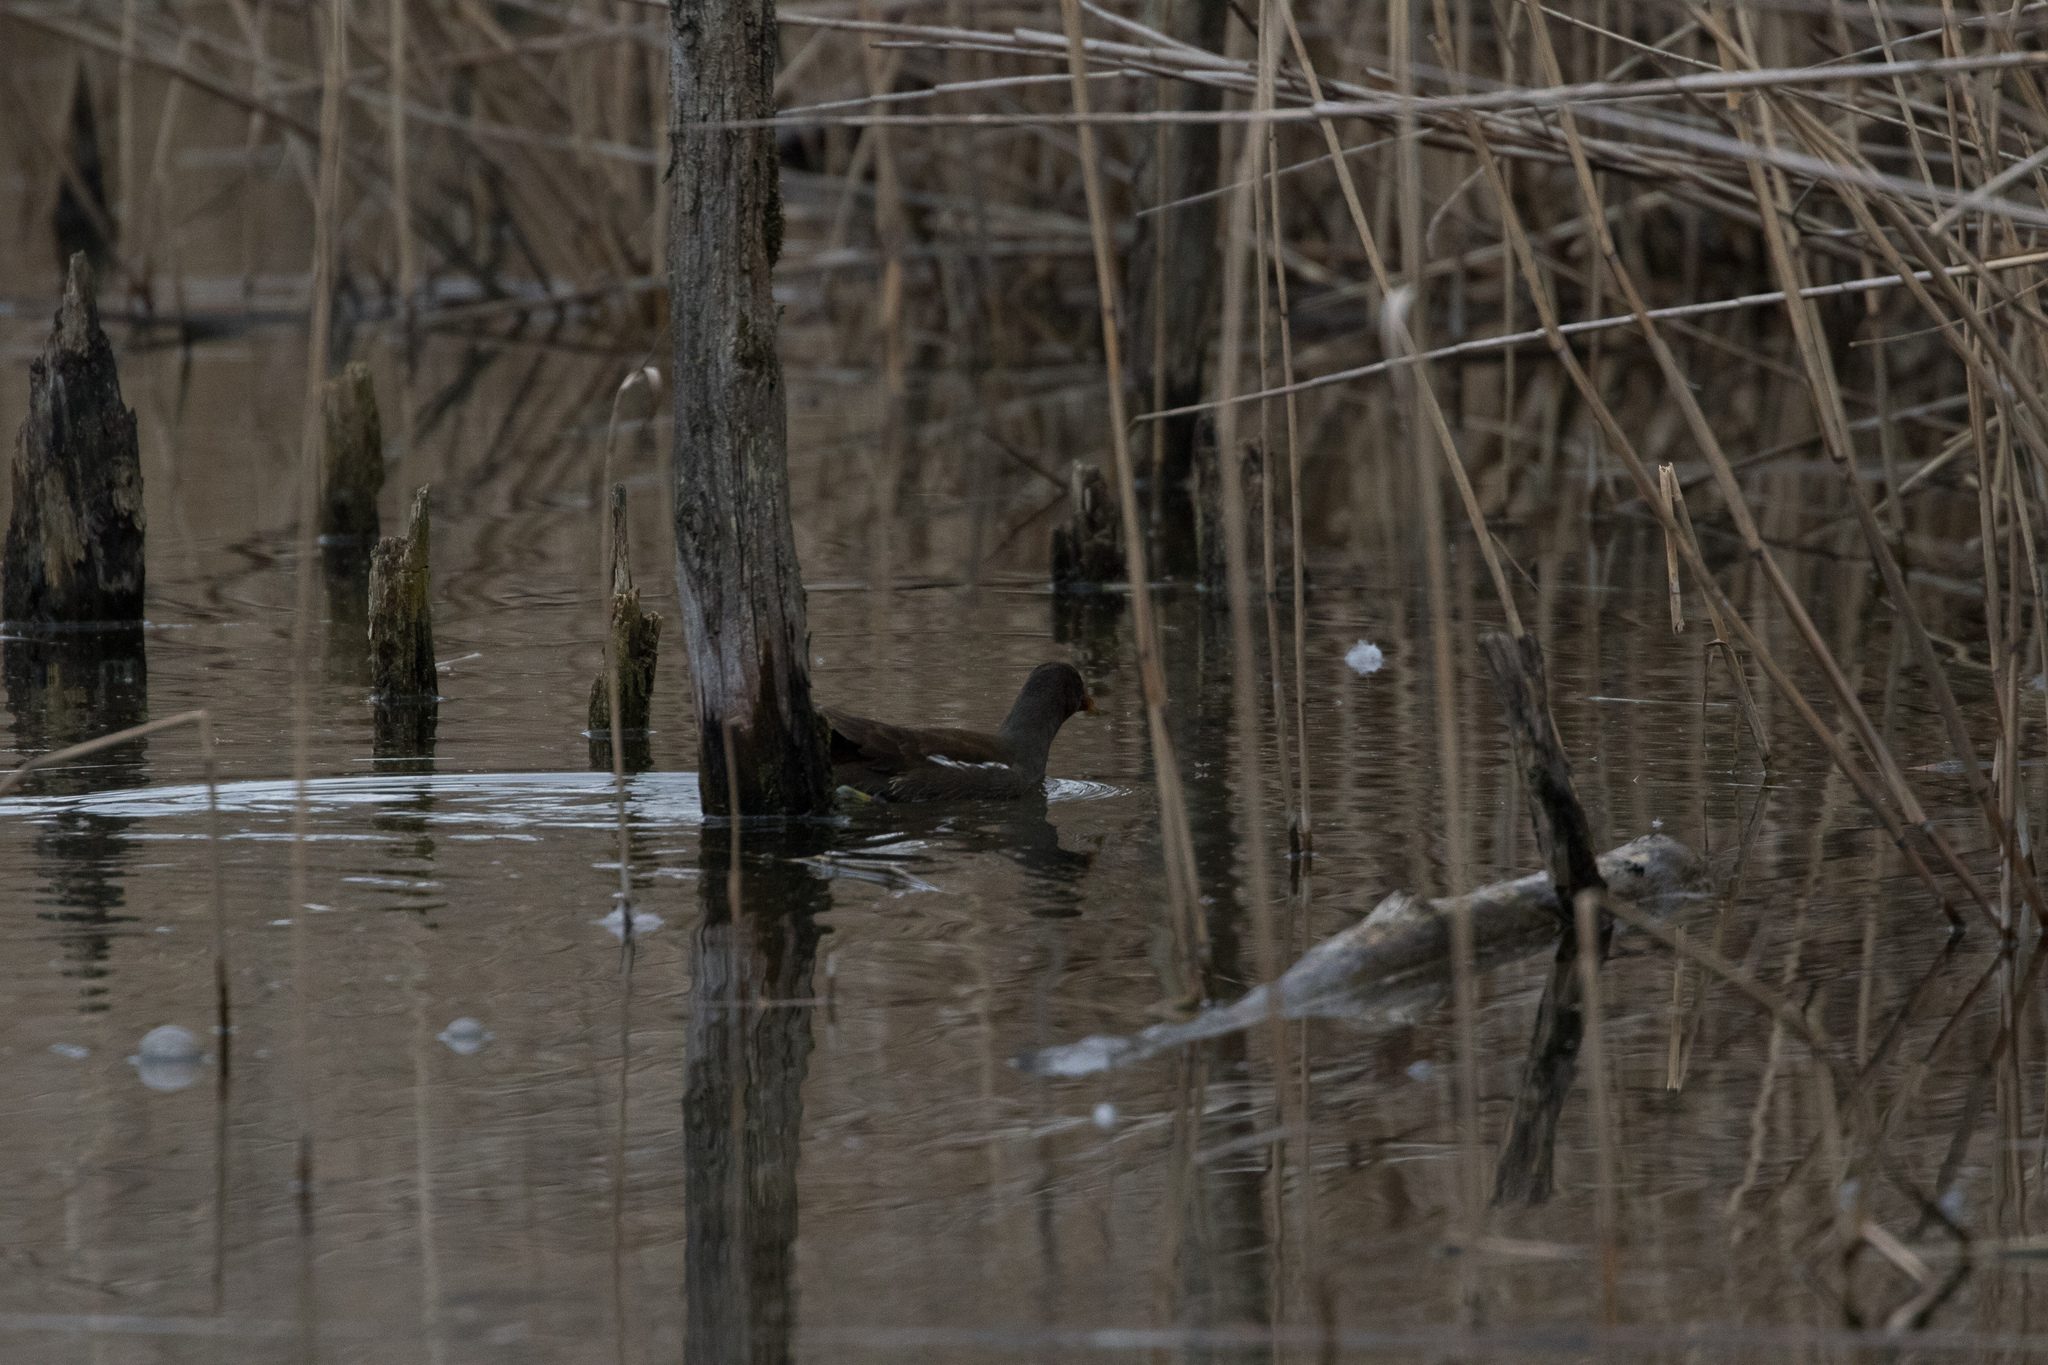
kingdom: Animalia
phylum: Chordata
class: Aves
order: Gruiformes
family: Rallidae
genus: Gallinula
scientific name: Gallinula chloropus
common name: Common moorhen
